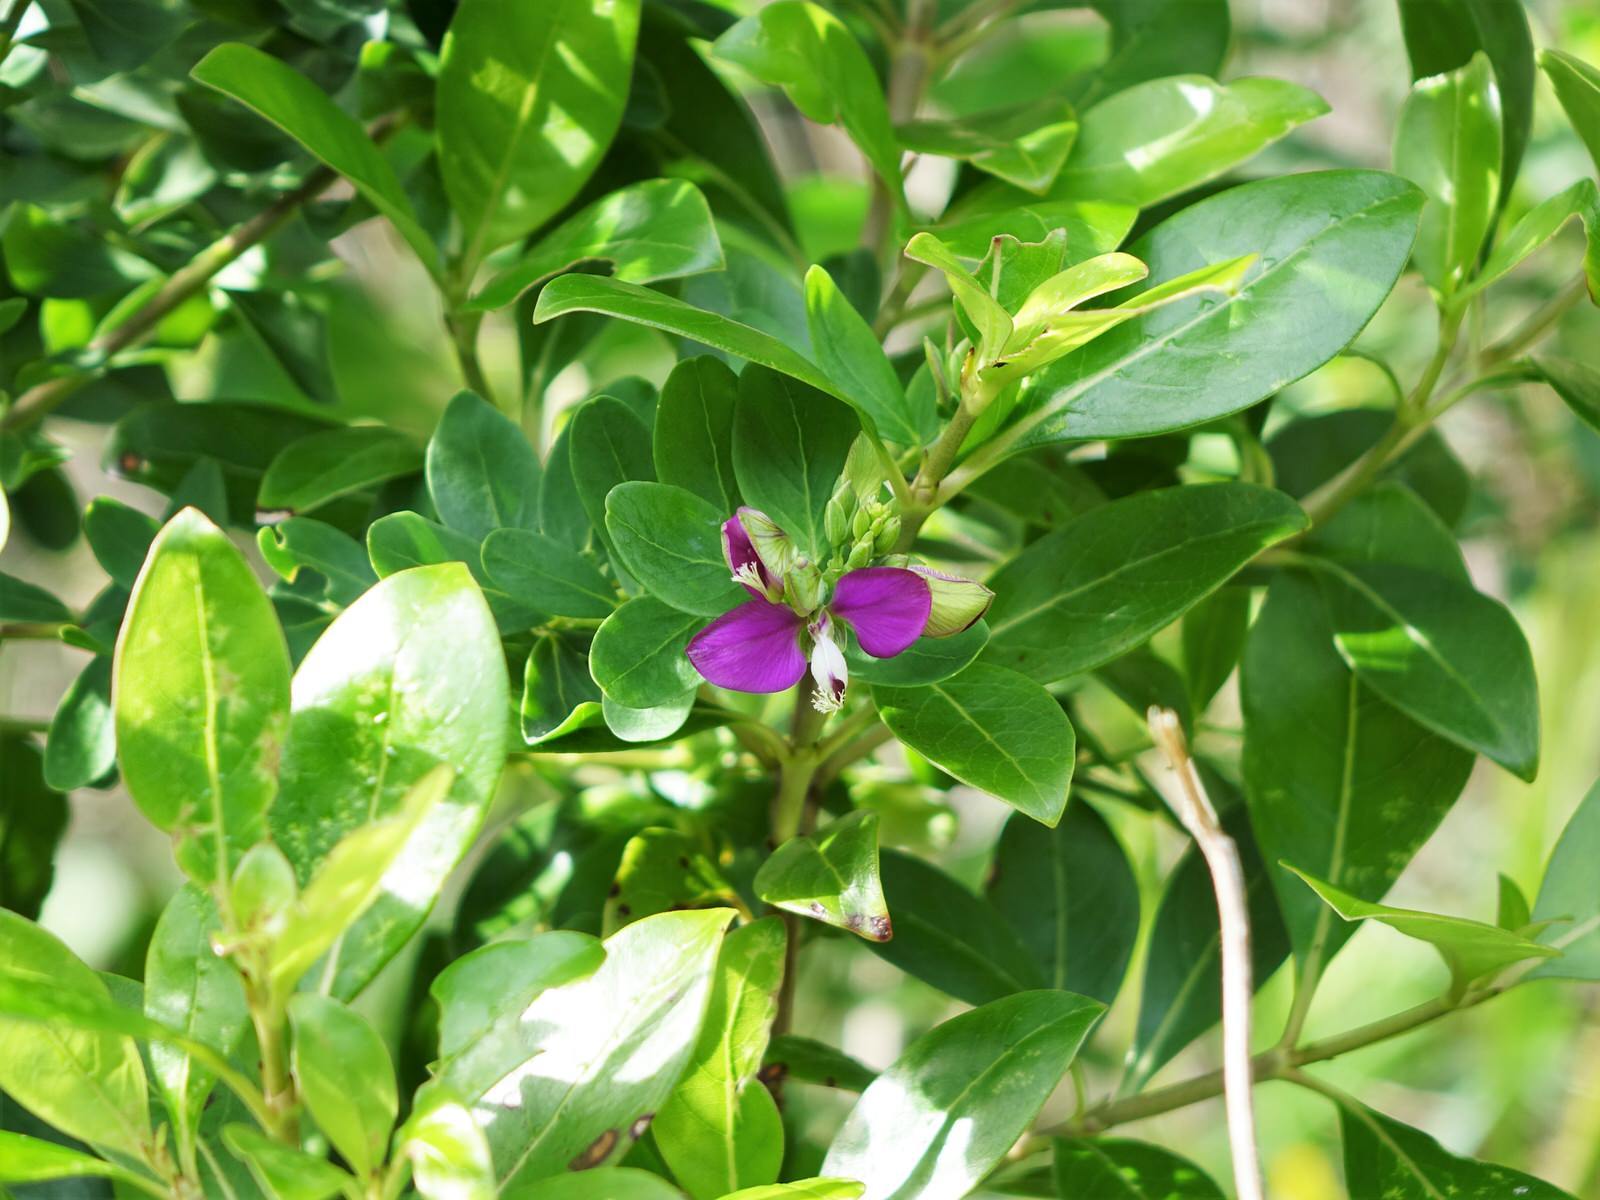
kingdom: Plantae
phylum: Tracheophyta
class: Magnoliopsida
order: Fabales
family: Polygalaceae
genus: Polygala
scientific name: Polygala myrtifolia
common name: Myrtle-leaf milkwort
